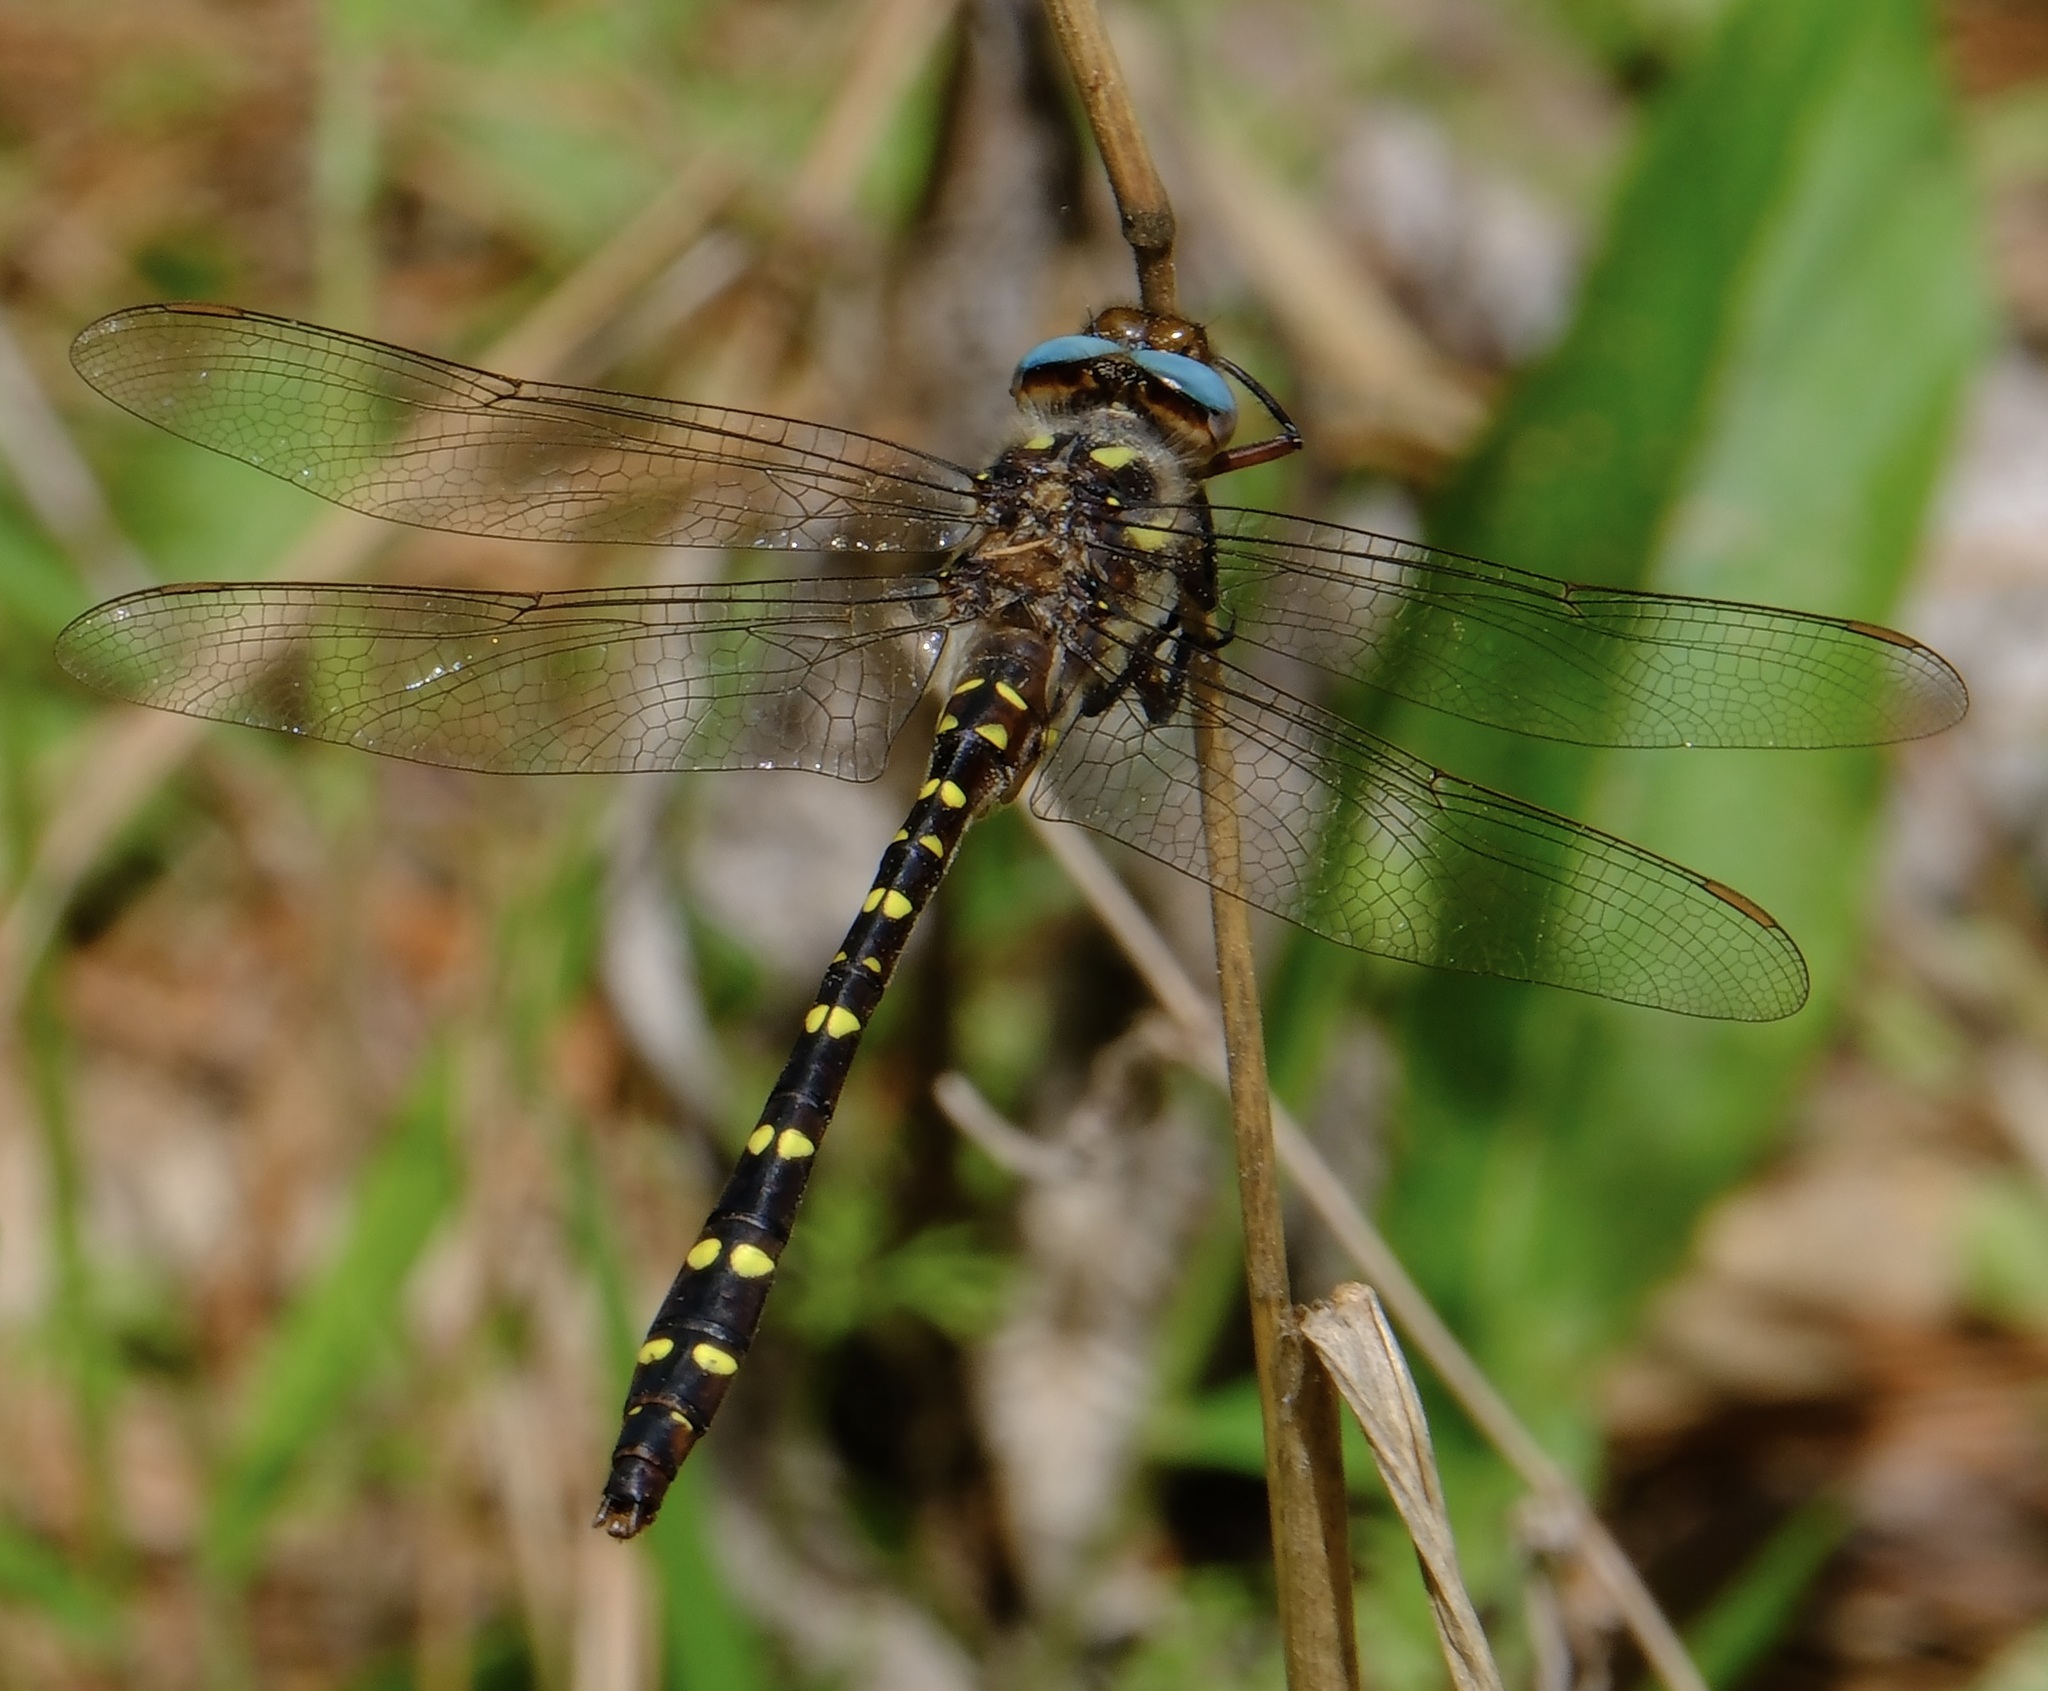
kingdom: Animalia
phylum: Arthropoda
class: Insecta
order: Odonata
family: Cordulegastridae
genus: Cordulegaster
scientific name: Cordulegaster maculata
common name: Twin-spotted spiketail
